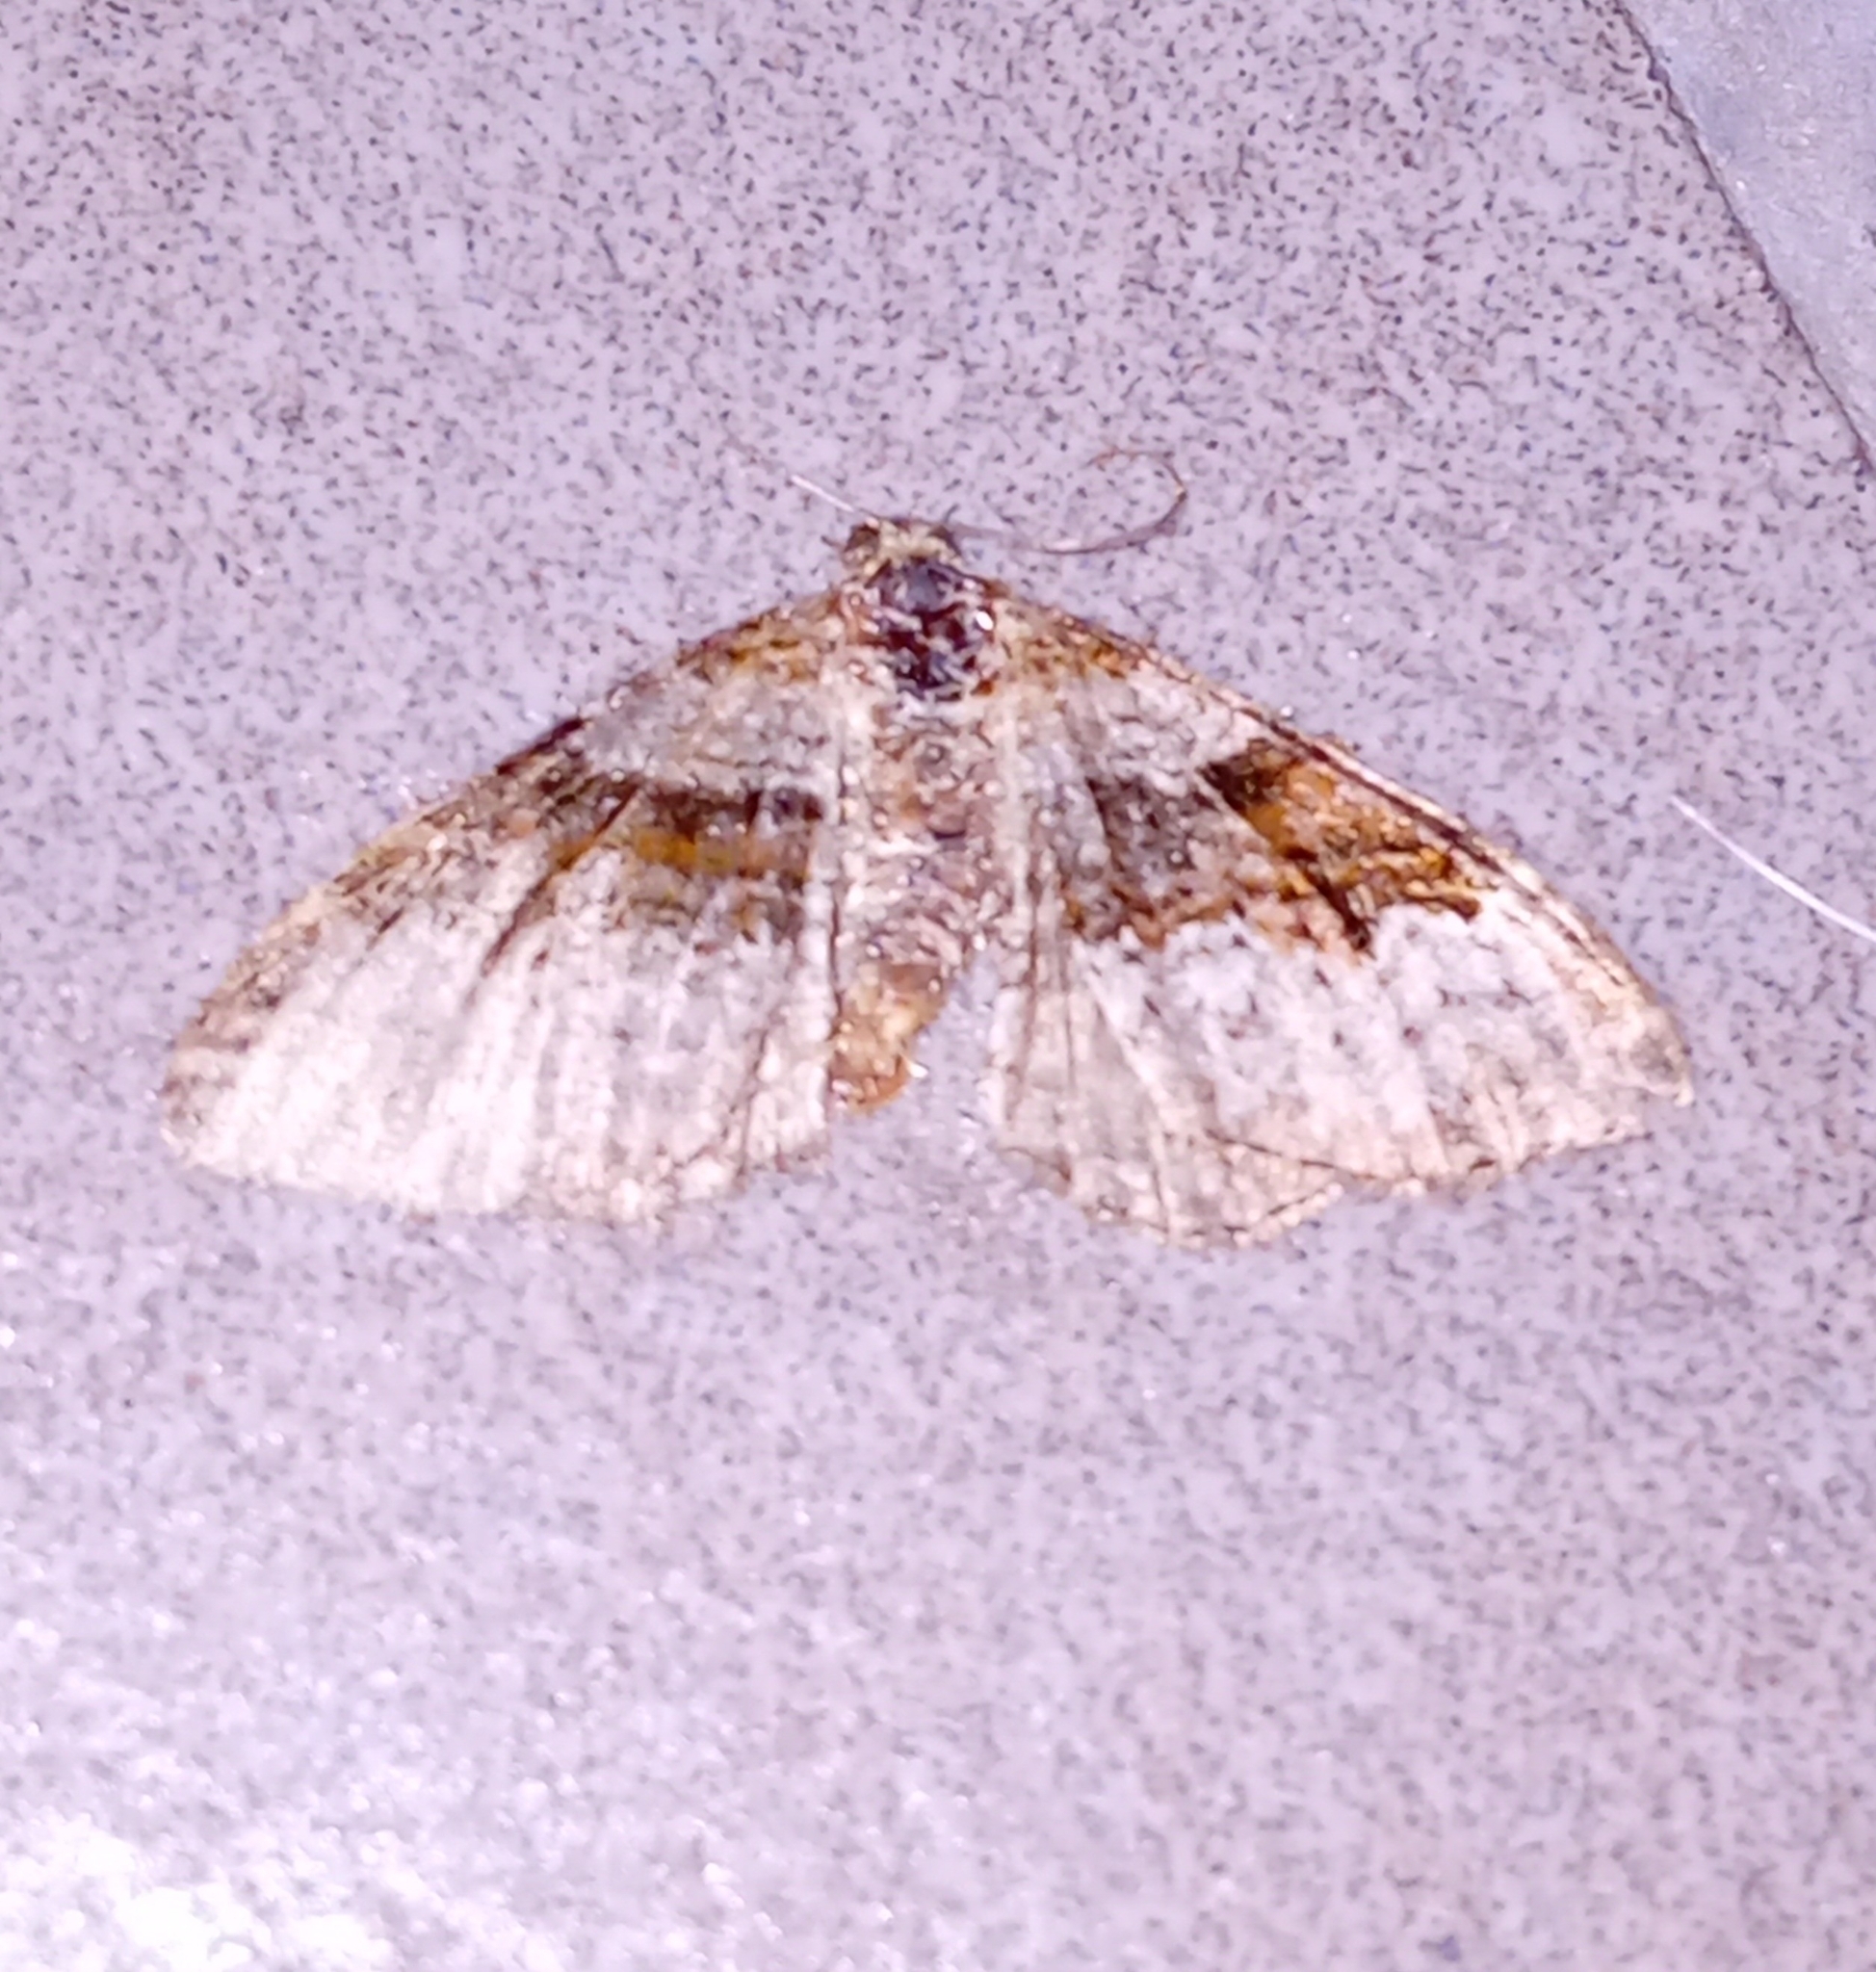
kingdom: Animalia
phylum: Arthropoda
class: Insecta
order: Lepidoptera
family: Geometridae
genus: Xanthorhoe
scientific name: Xanthorhoe designata
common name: Flame carpet
